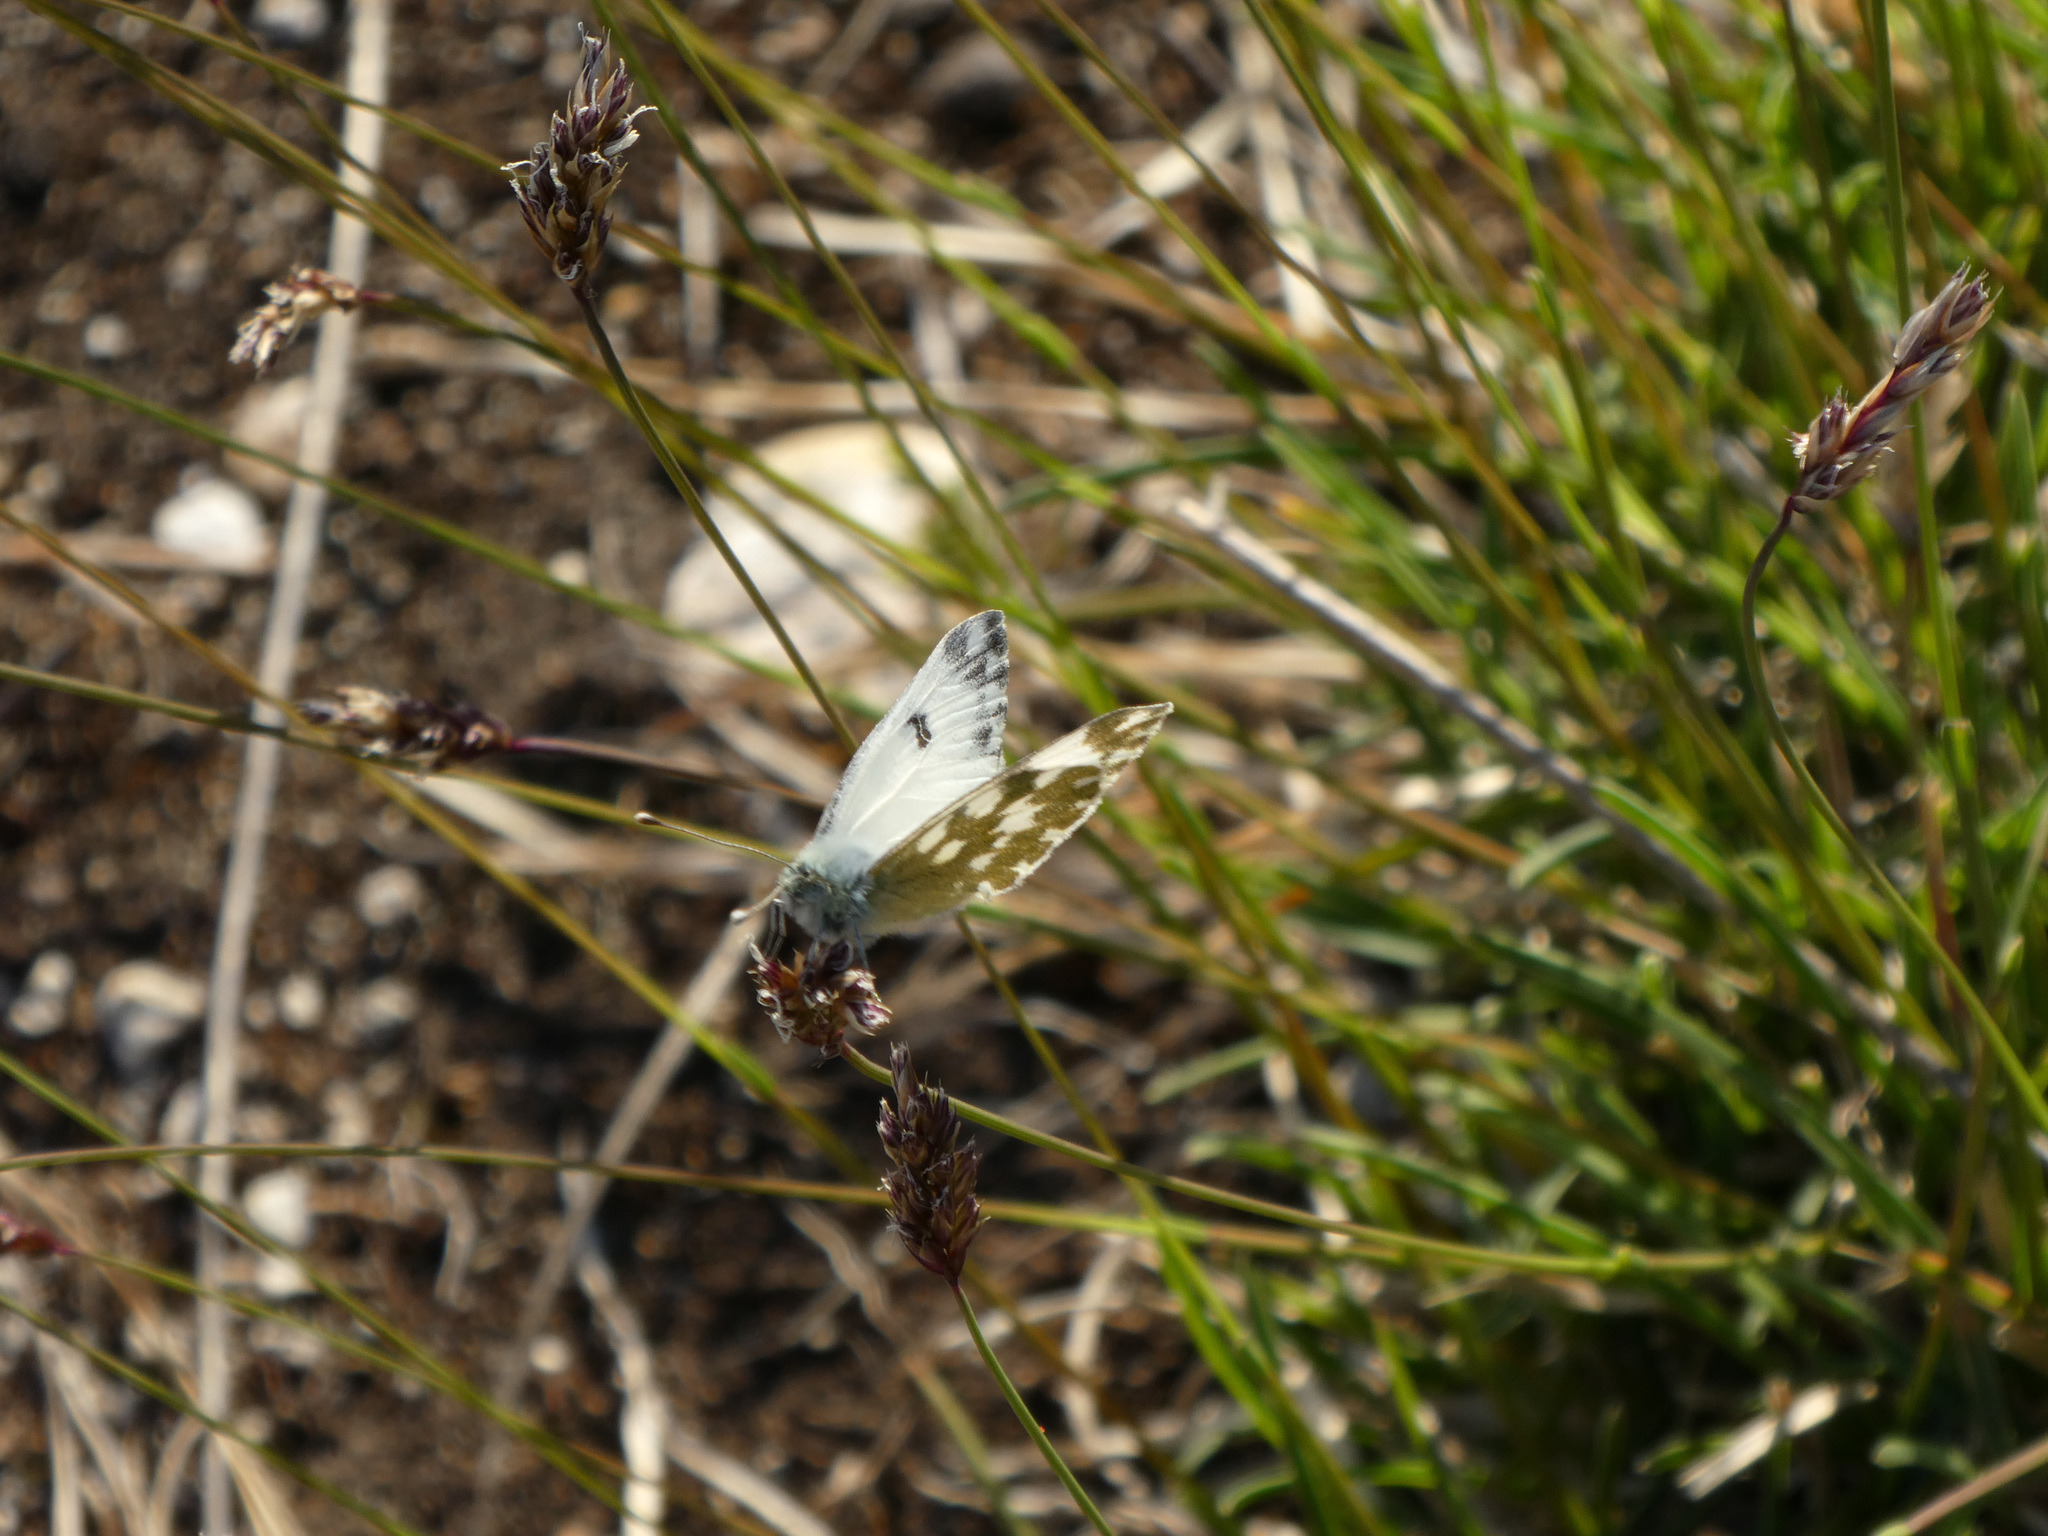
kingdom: Animalia
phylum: Arthropoda
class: Insecta
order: Lepidoptera
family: Pieridae
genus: Pontia
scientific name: Pontia edusa
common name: Eastern bath white
